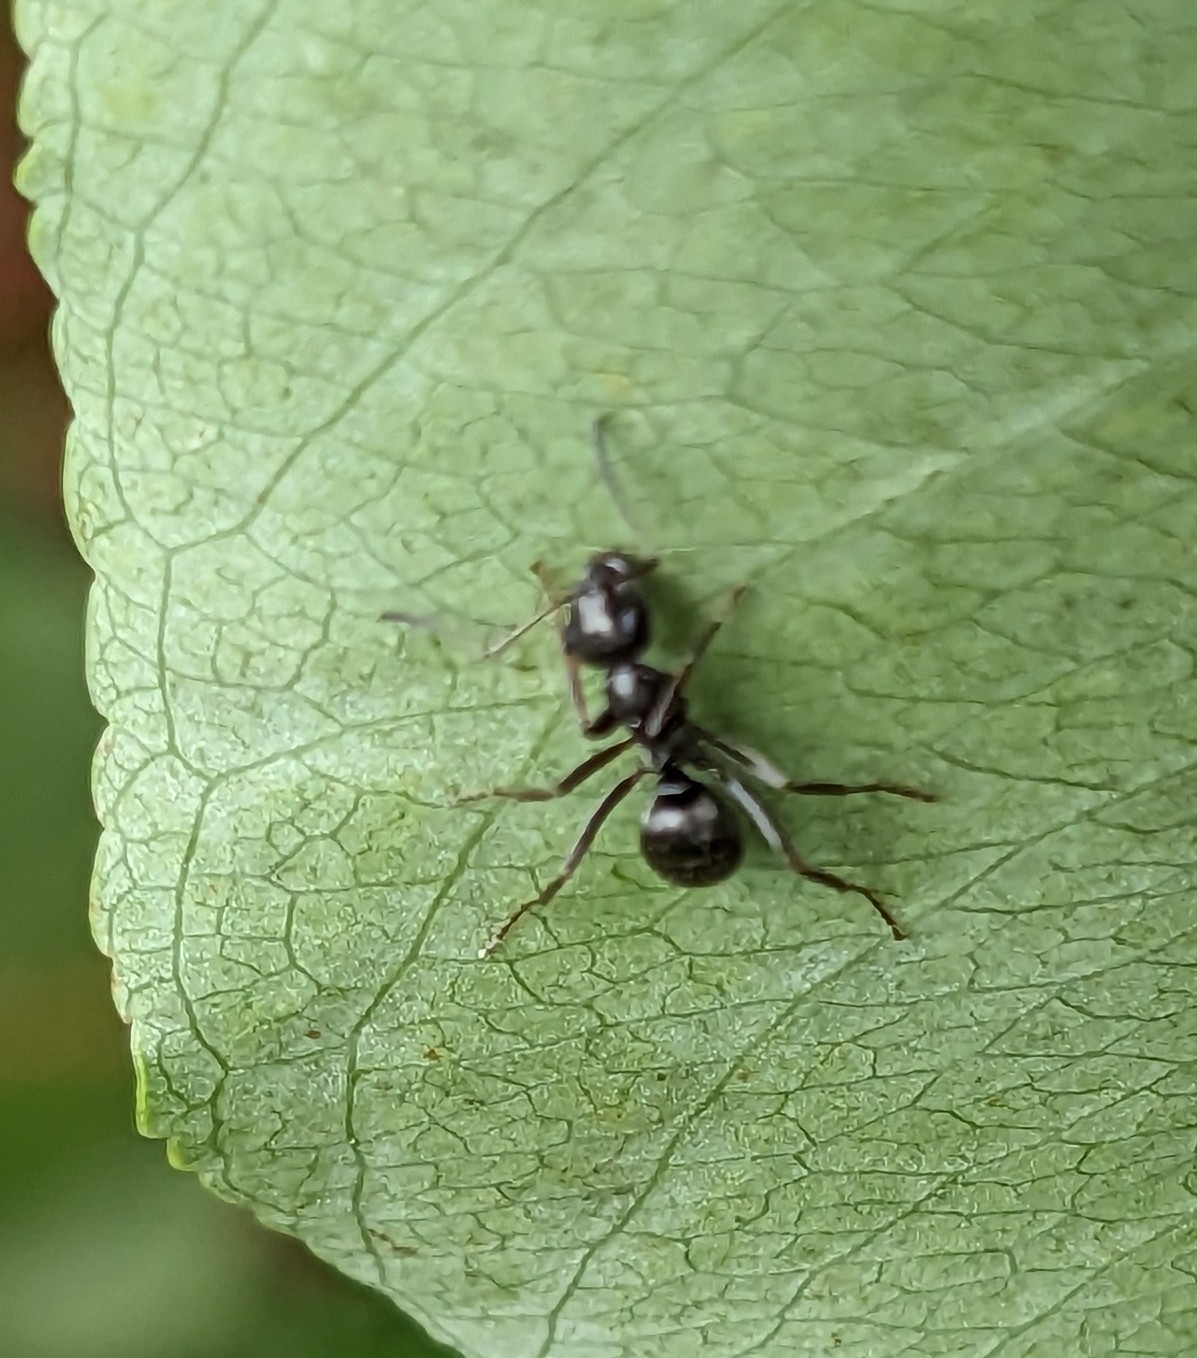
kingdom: Animalia
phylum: Arthropoda
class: Insecta
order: Hymenoptera
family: Formicidae
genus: Formica
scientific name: Formica
